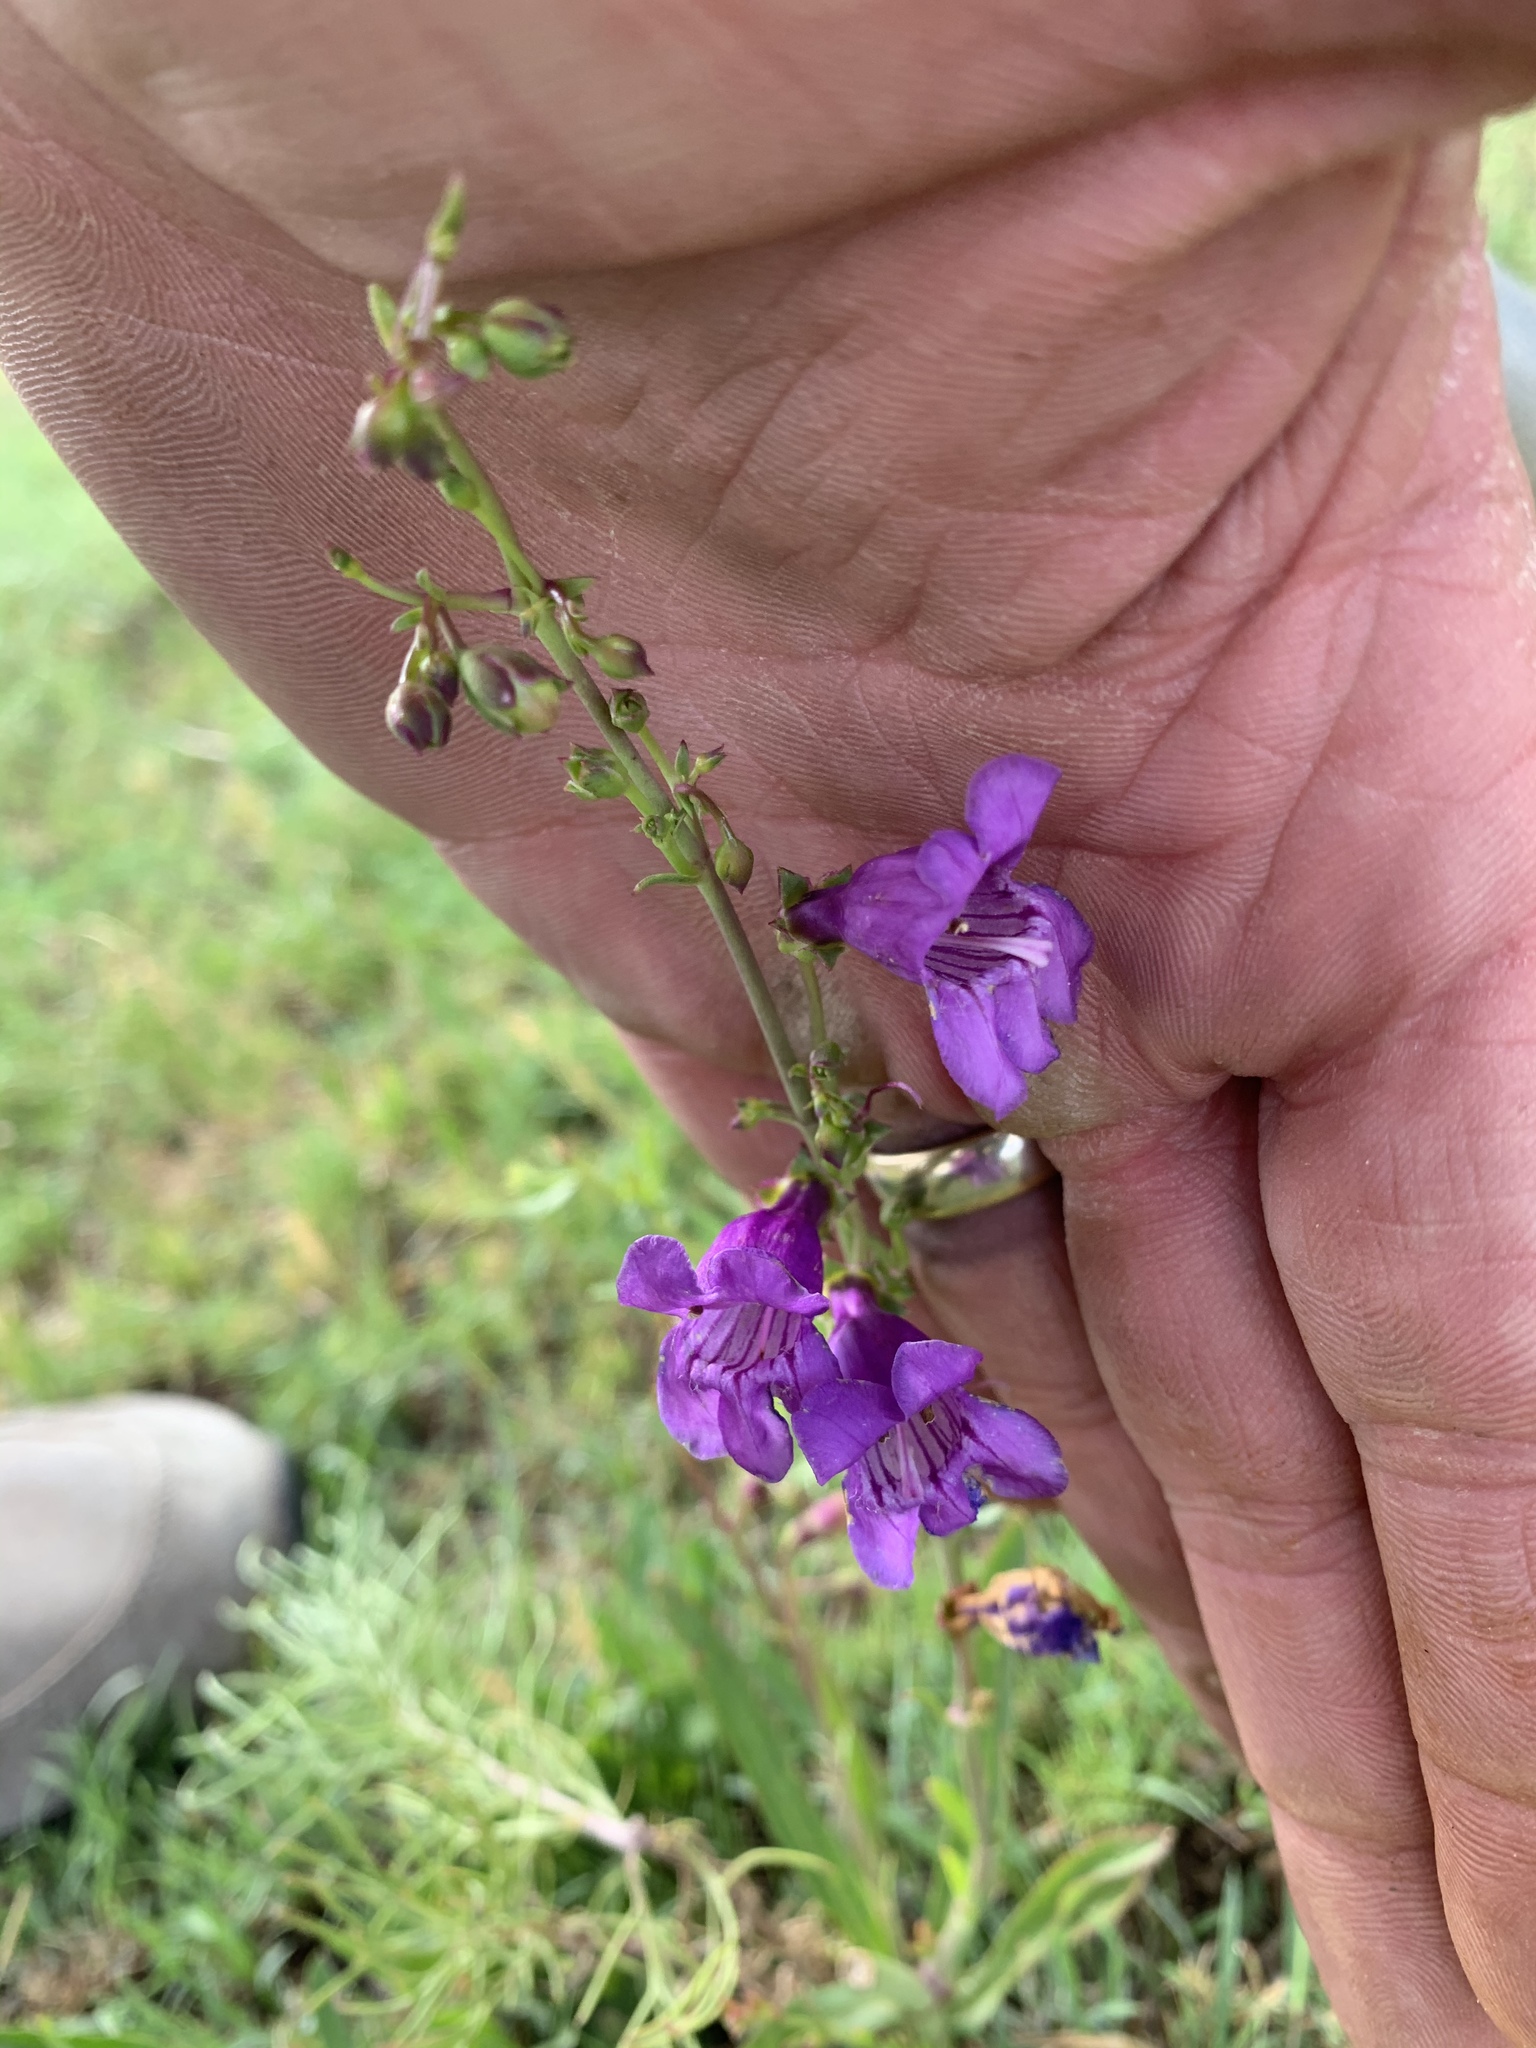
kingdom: Plantae
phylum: Tracheophyta
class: Magnoliopsida
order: Lamiales
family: Plantaginaceae
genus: Penstemon
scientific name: Penstemon neomexicanus
